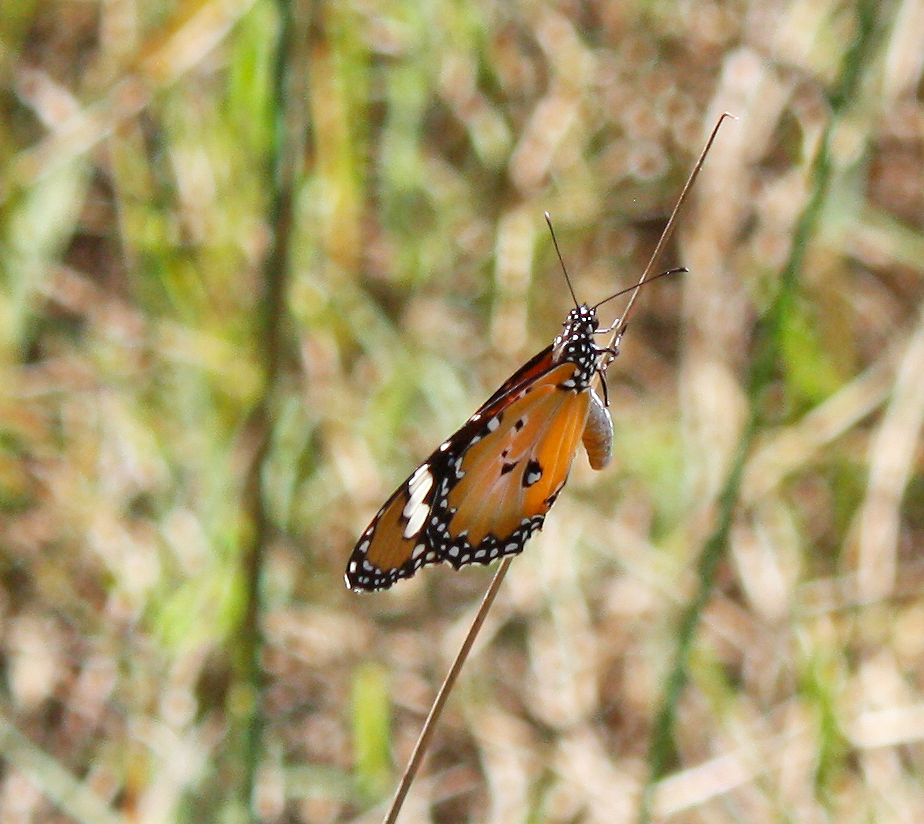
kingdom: Animalia
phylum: Arthropoda
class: Insecta
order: Lepidoptera
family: Nymphalidae
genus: Danaus
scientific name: Danaus chrysippus
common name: Plain tiger
